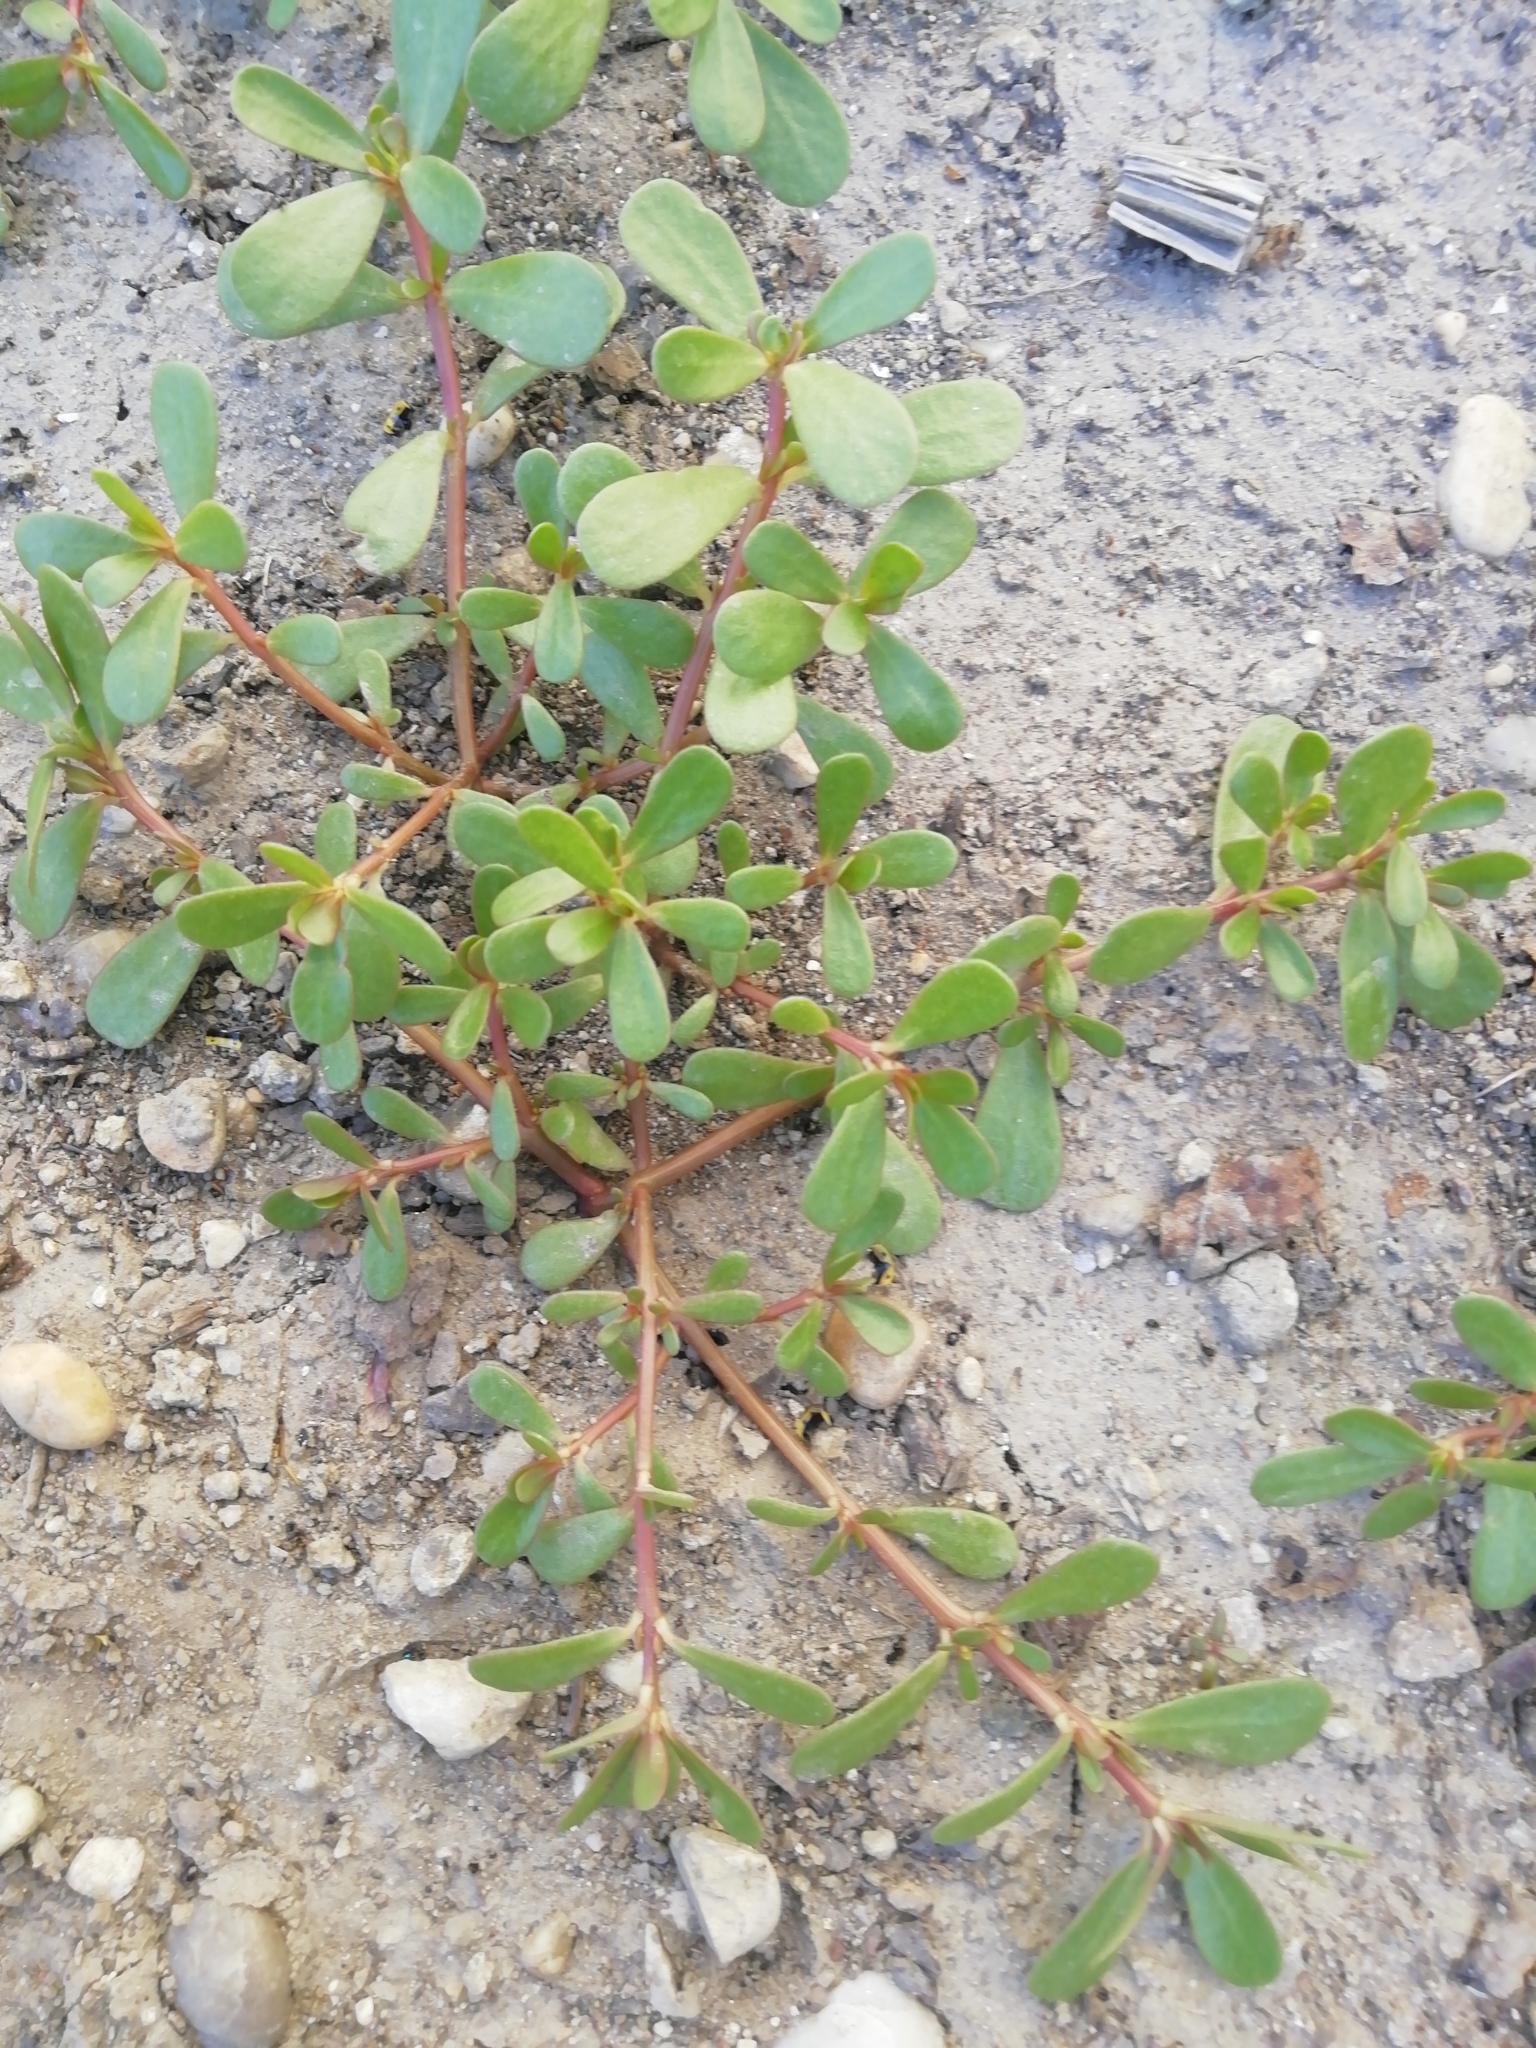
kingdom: Plantae
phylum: Tracheophyta
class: Magnoliopsida
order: Caryophyllales
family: Portulacaceae
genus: Portulaca
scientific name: Portulaca oleracea
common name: Common purslane
